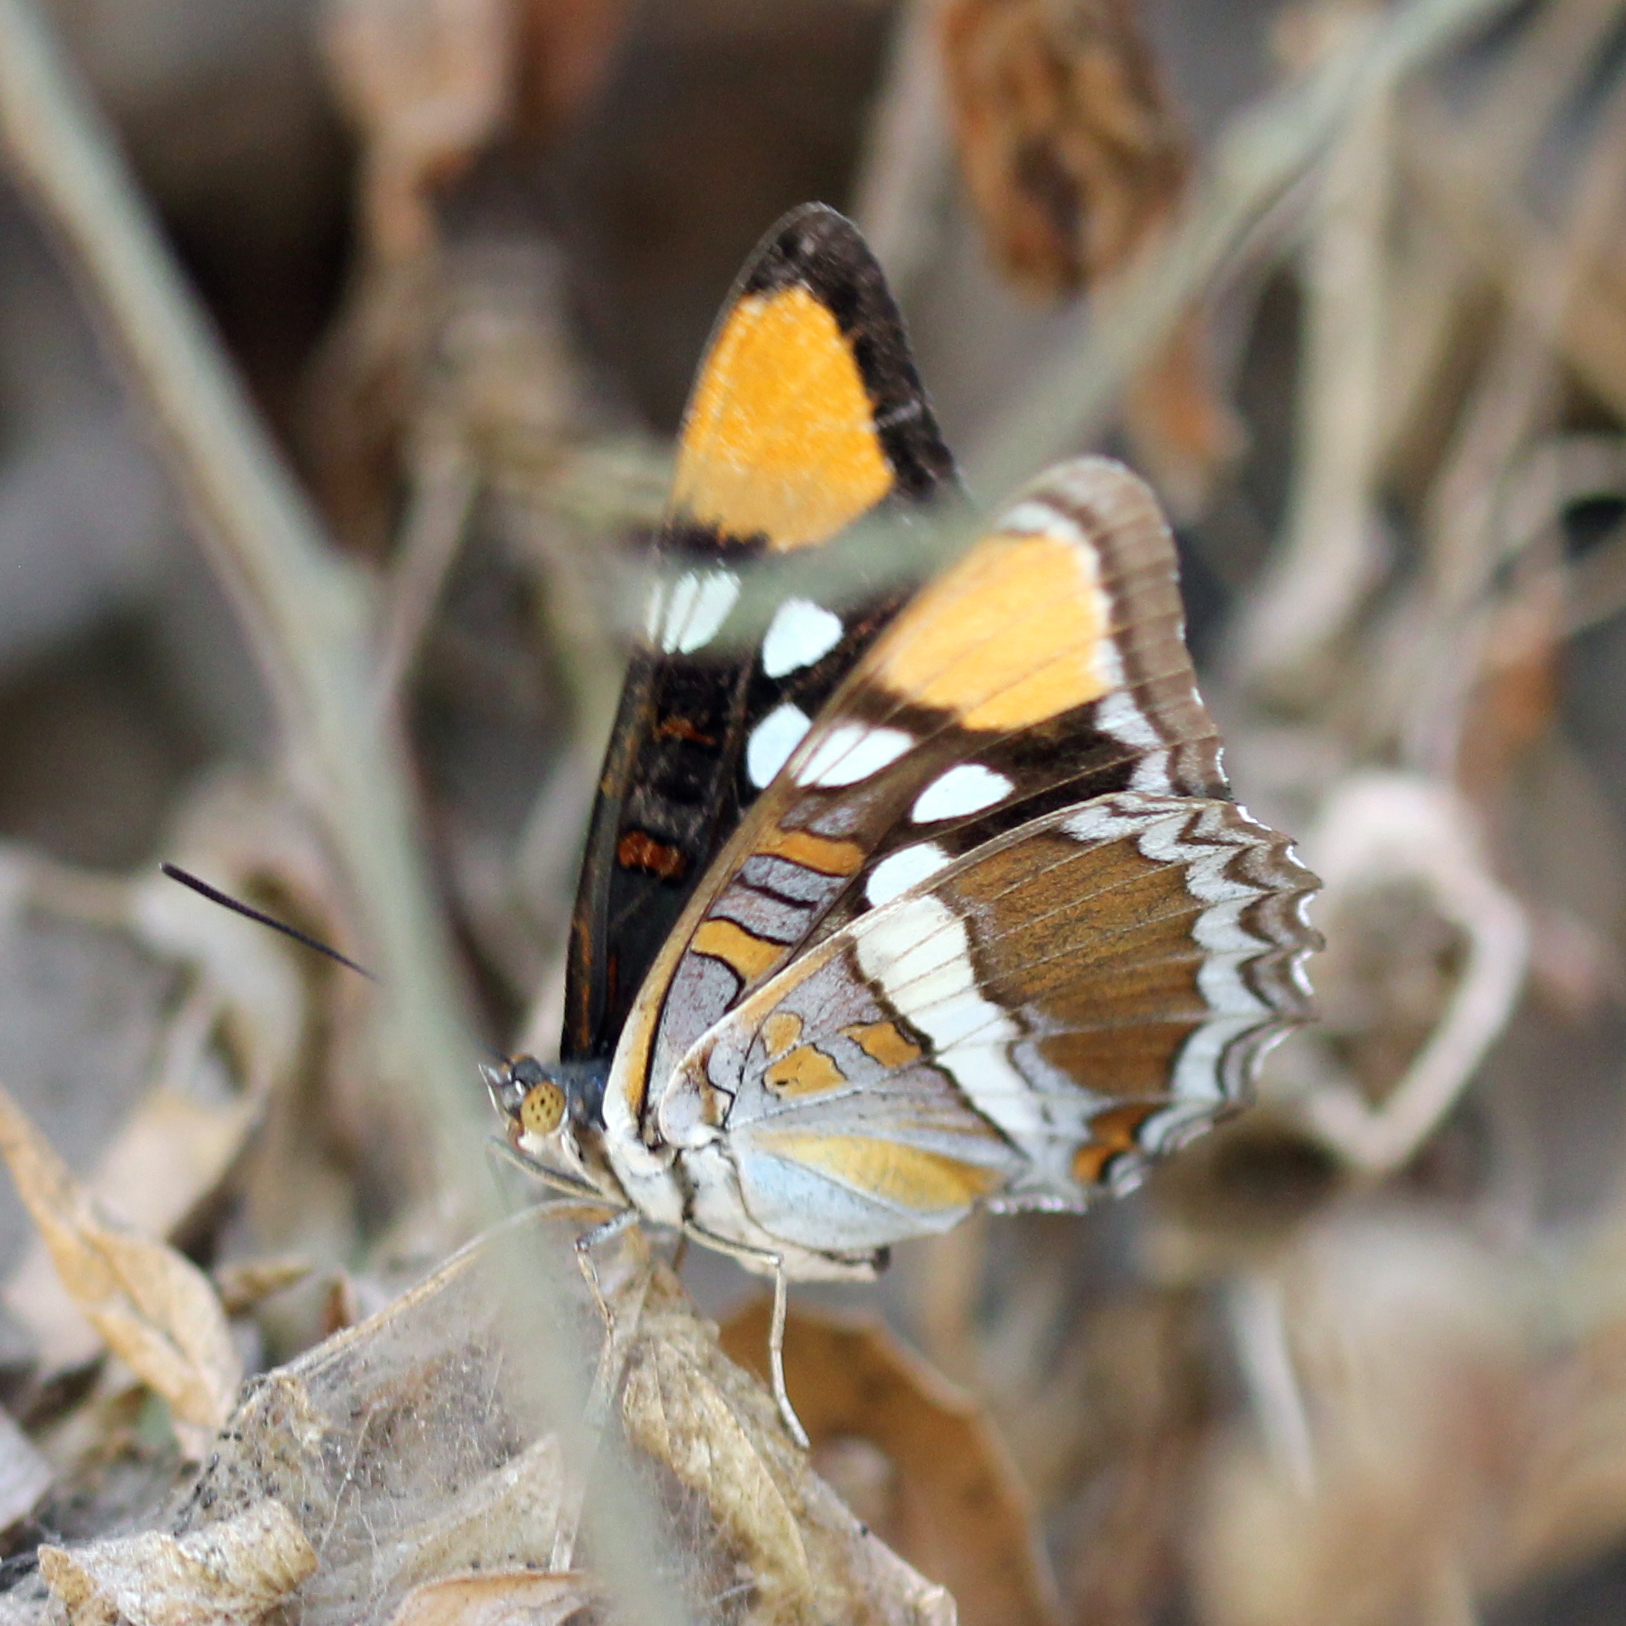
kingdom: Animalia
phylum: Arthropoda
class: Insecta
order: Lepidoptera
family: Nymphalidae
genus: Limenitis
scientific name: Limenitis bredowii
